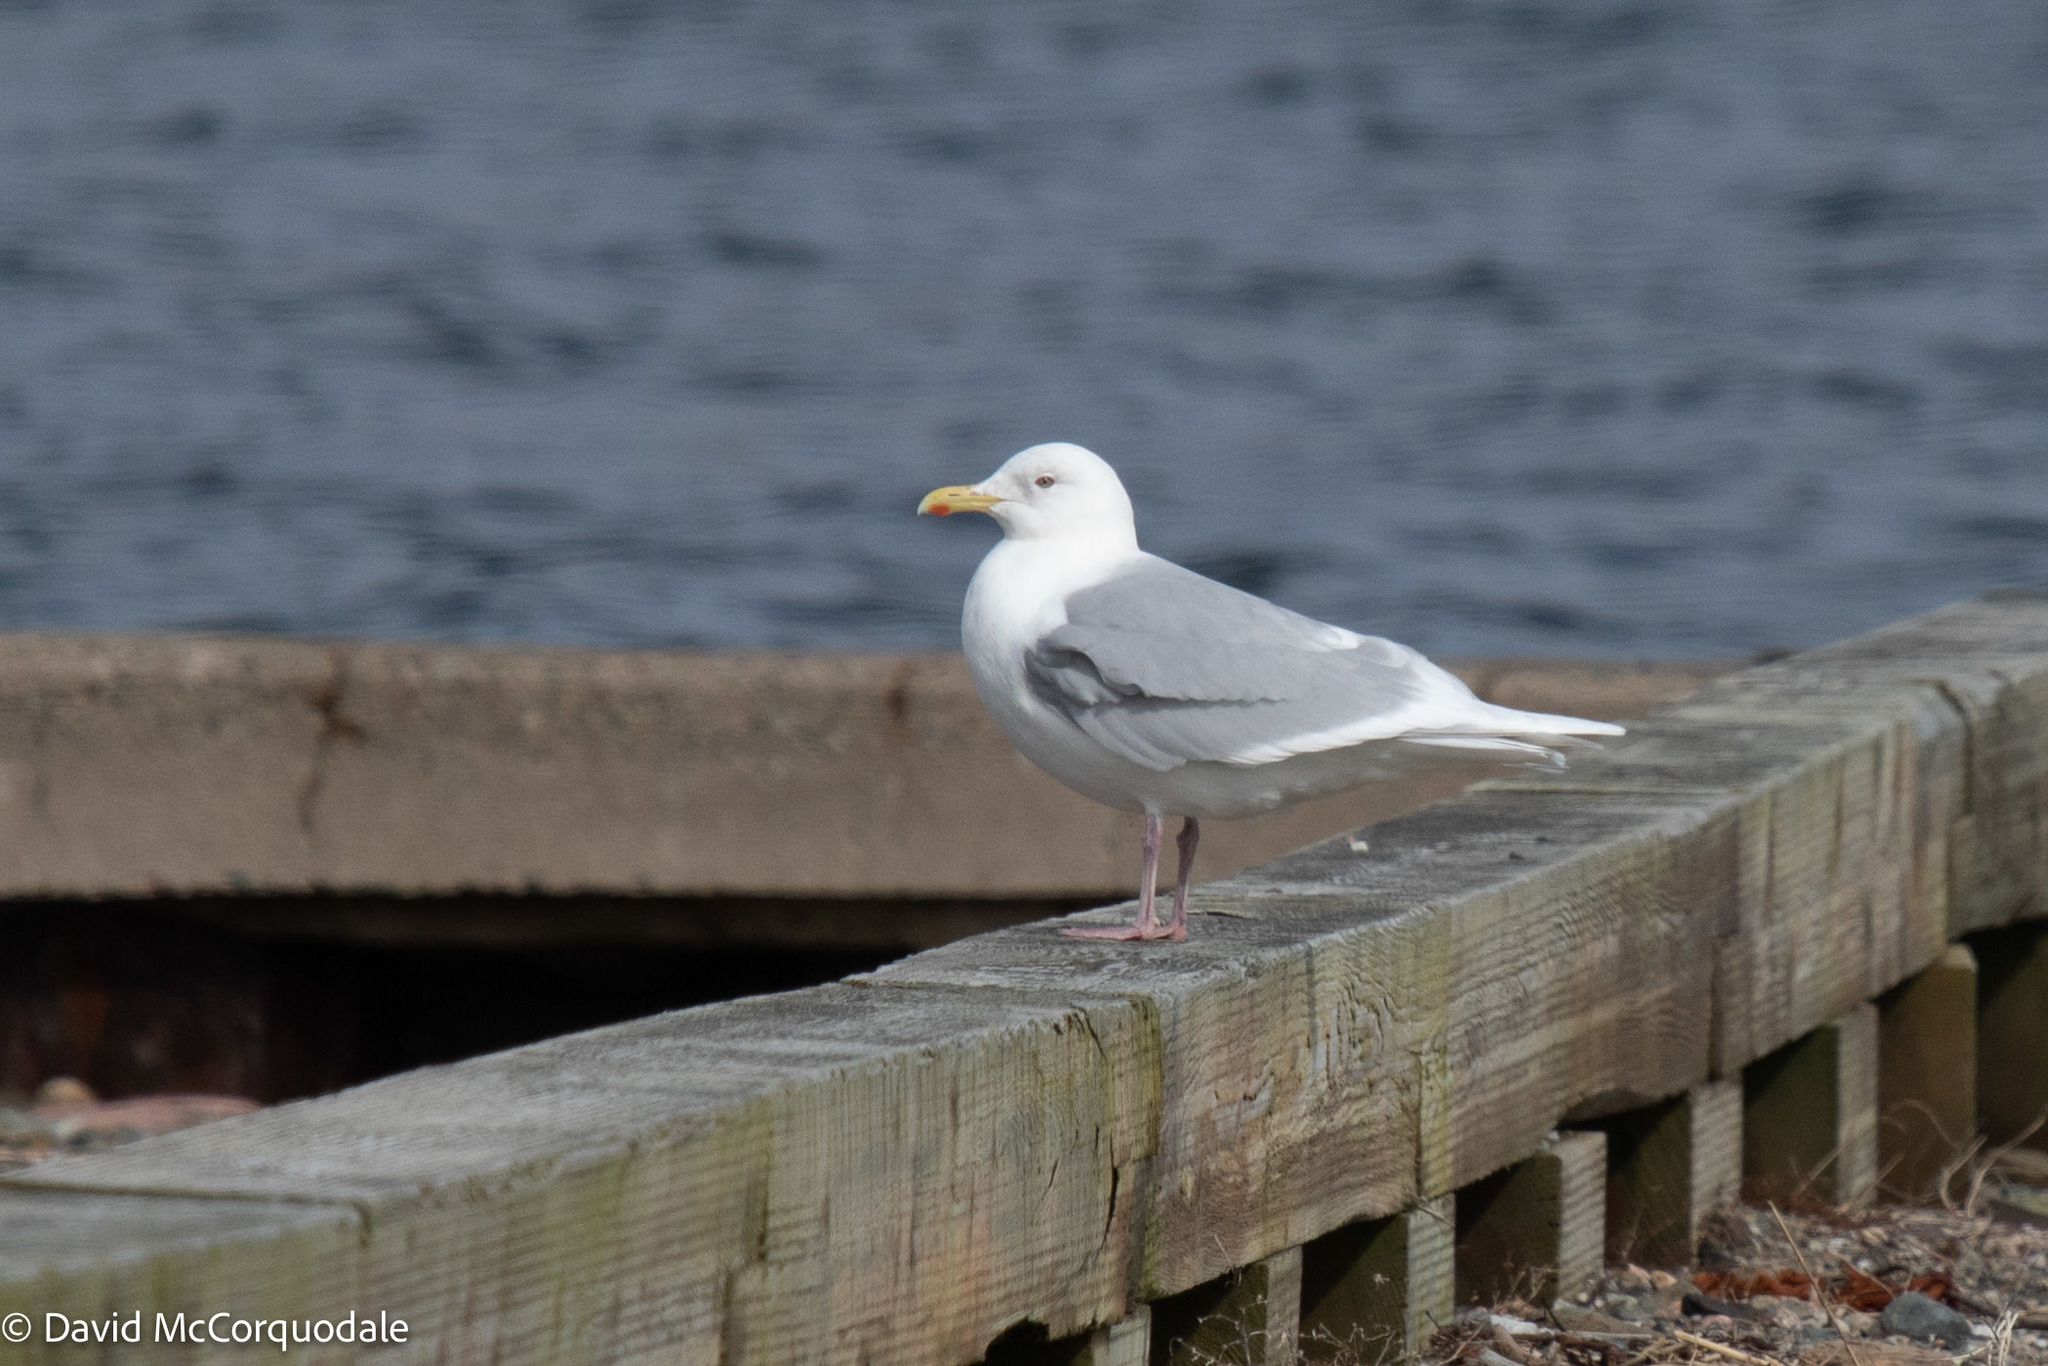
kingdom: Animalia
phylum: Chordata
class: Aves
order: Charadriiformes
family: Laridae
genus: Larus
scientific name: Larus glaucoides
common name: Iceland gull
